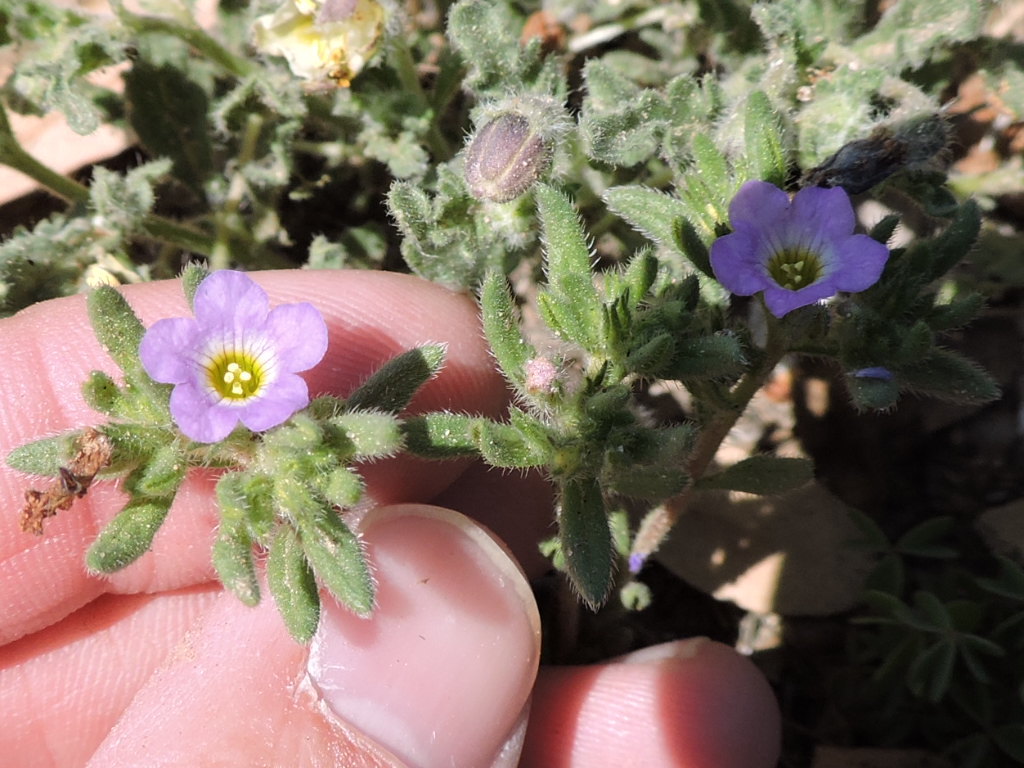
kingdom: Plantae
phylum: Tracheophyta
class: Magnoliopsida
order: Boraginales
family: Namaceae
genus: Nama
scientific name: Nama hispida
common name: Bristly nama
